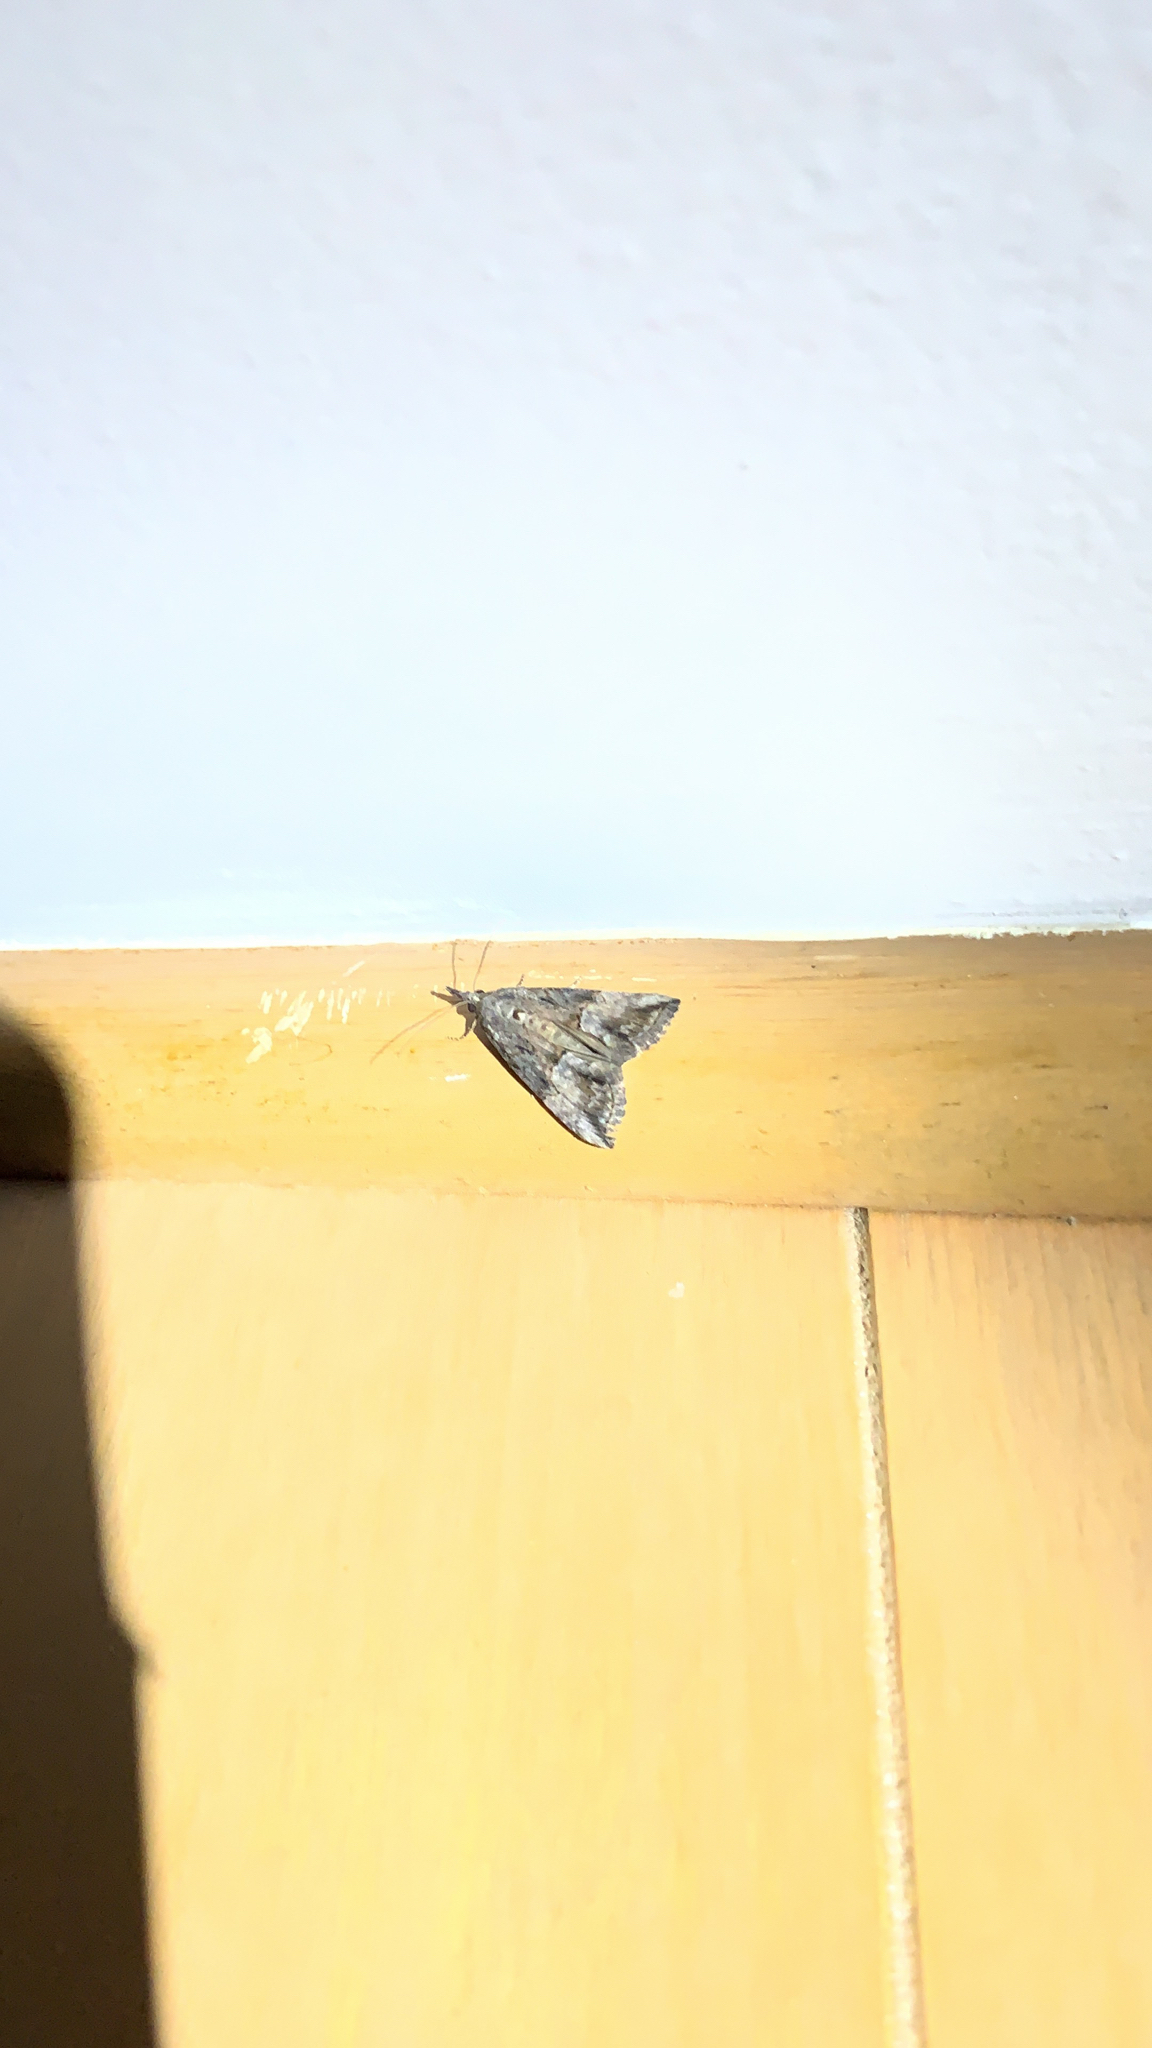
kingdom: Animalia
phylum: Arthropoda
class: Insecta
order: Lepidoptera
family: Erebidae
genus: Hypena
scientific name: Hypena scabra
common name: Green cloverworm
